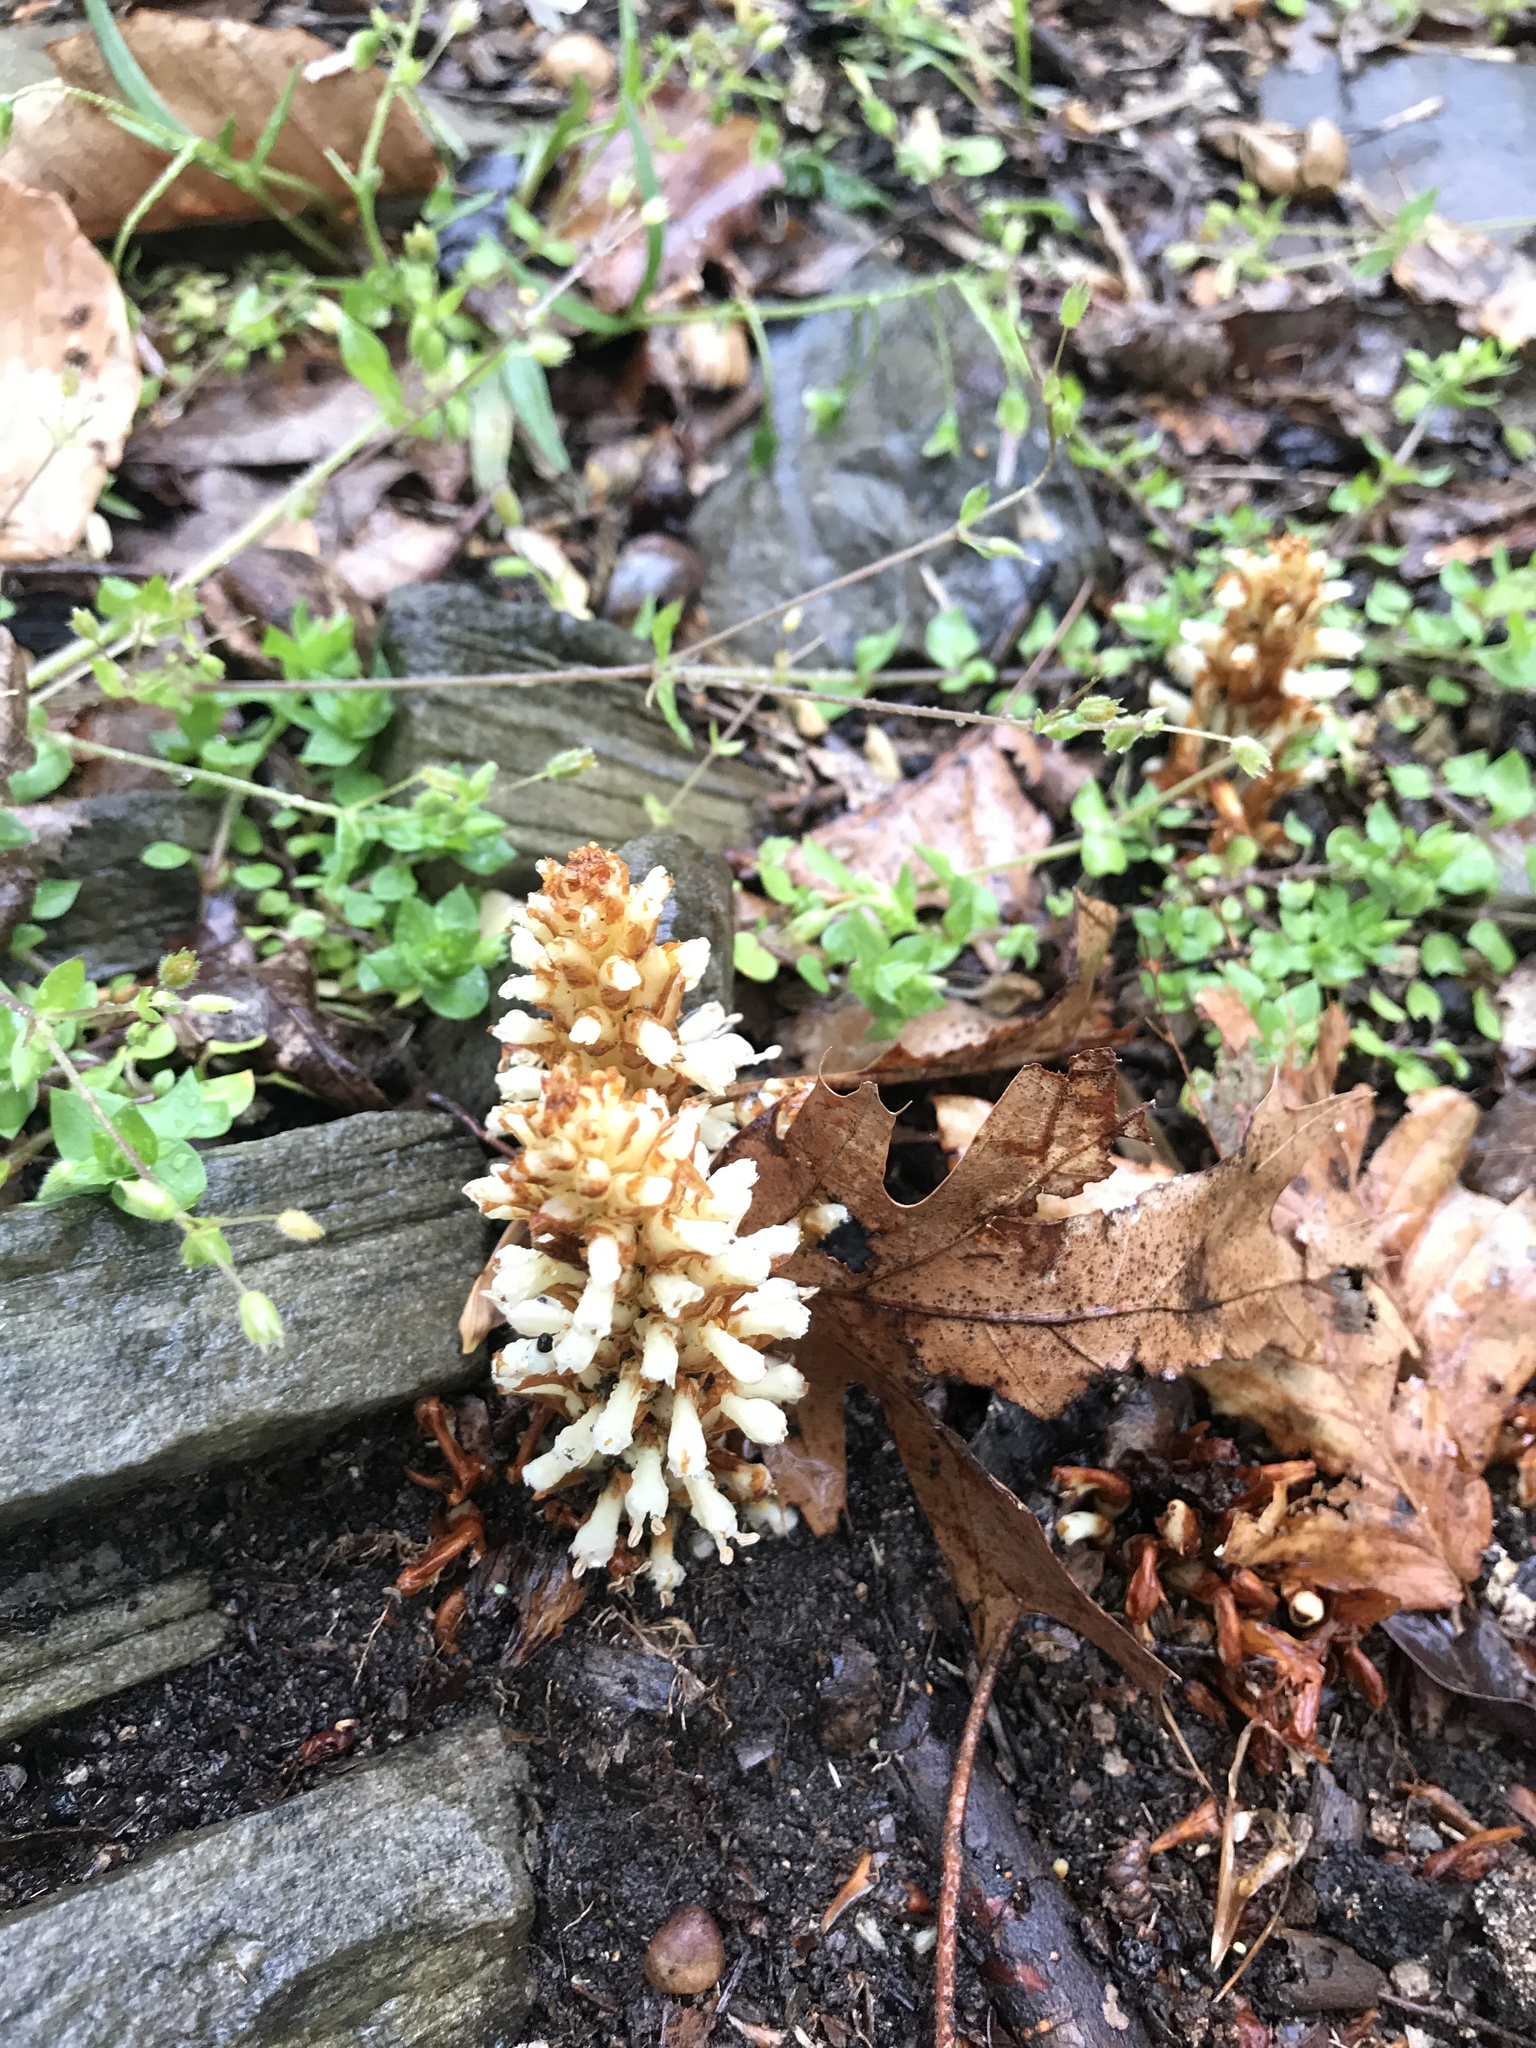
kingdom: Plantae
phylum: Tracheophyta
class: Magnoliopsida
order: Lamiales
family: Orobanchaceae
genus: Conopholis
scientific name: Conopholis americana
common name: American cancer-root
